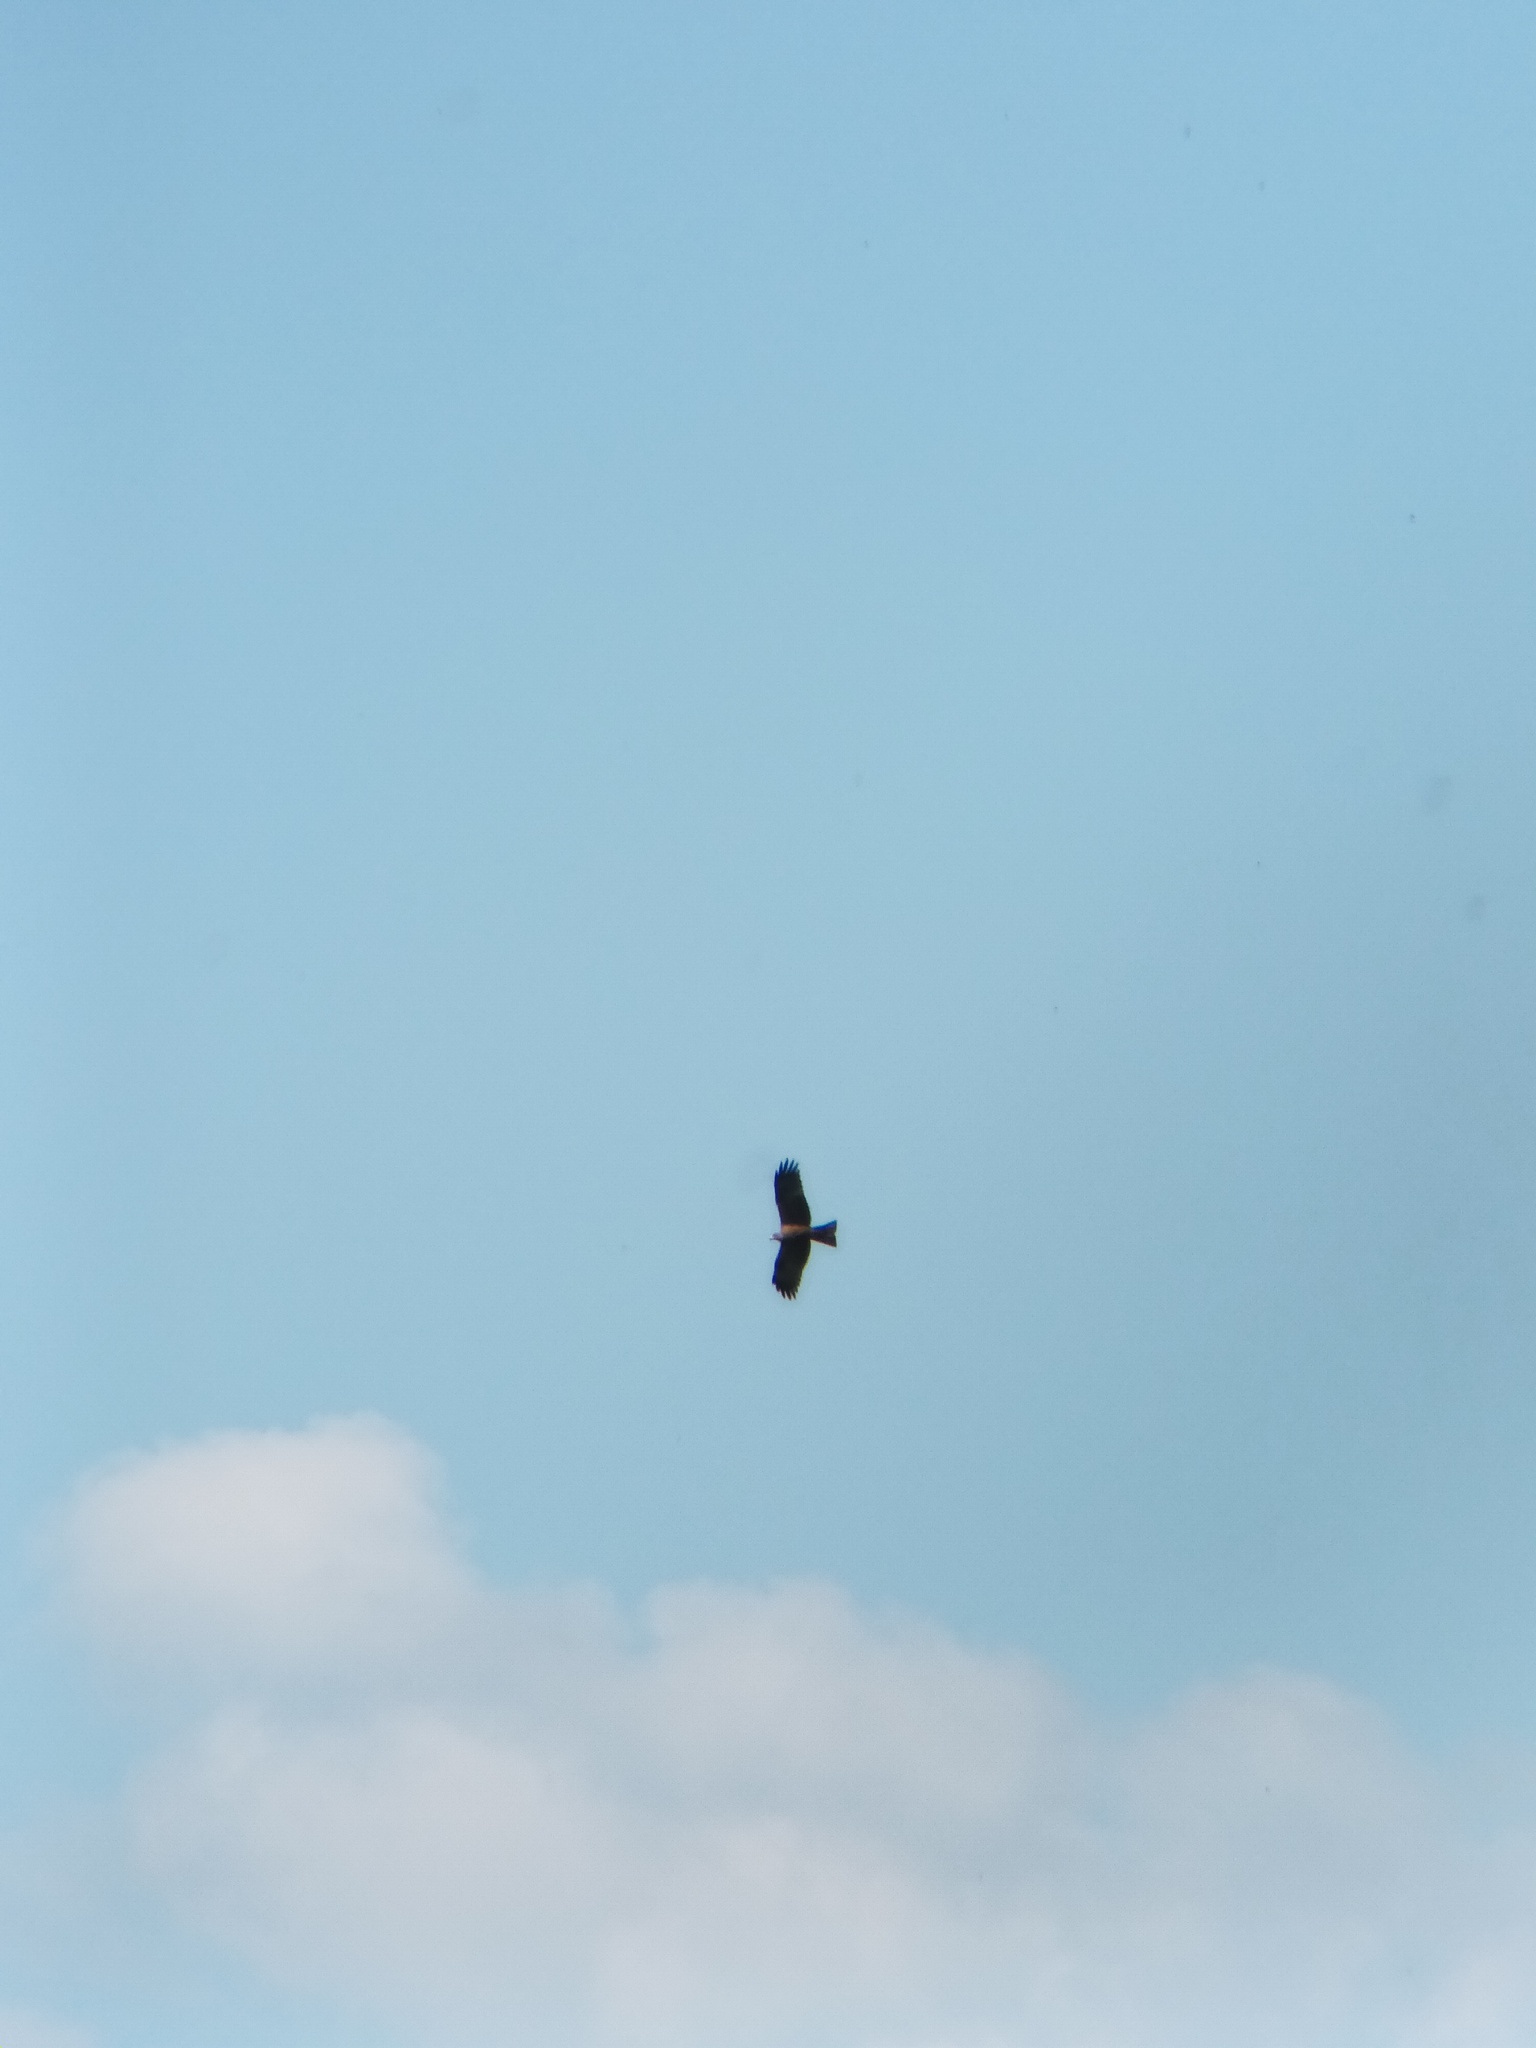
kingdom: Animalia
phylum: Chordata
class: Aves
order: Accipitriformes
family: Accipitridae
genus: Milvus
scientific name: Milvus migrans
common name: Black kite
